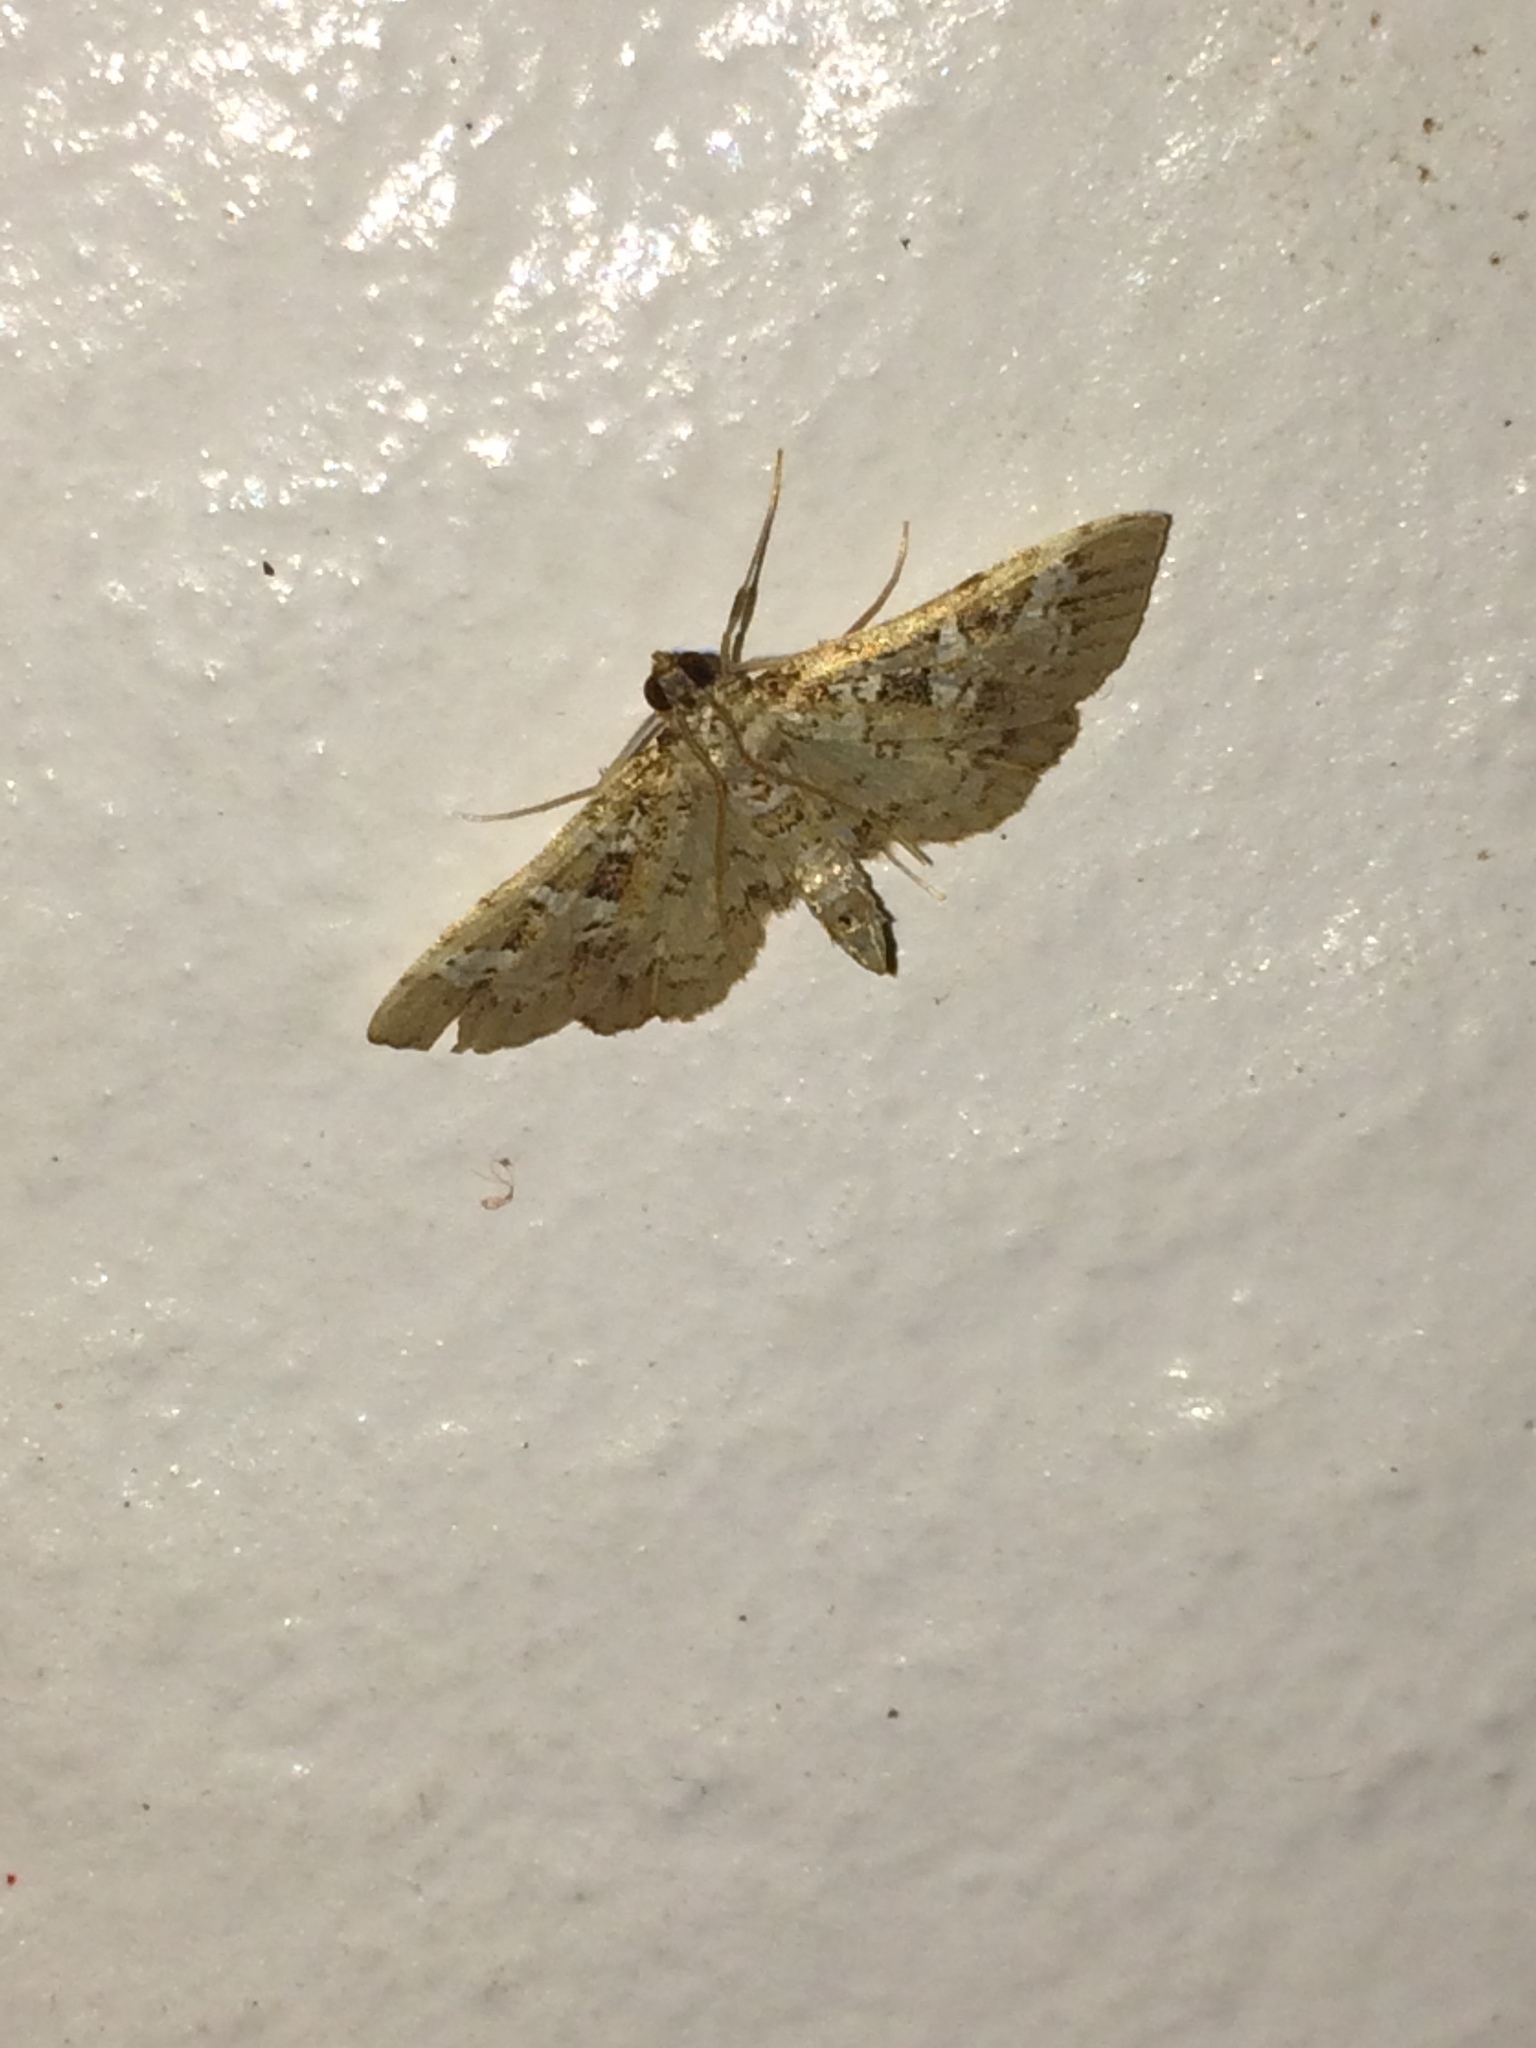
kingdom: Animalia
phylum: Arthropoda
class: Insecta
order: Lepidoptera
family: Crambidae
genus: Samea
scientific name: Samea multiplicalis
